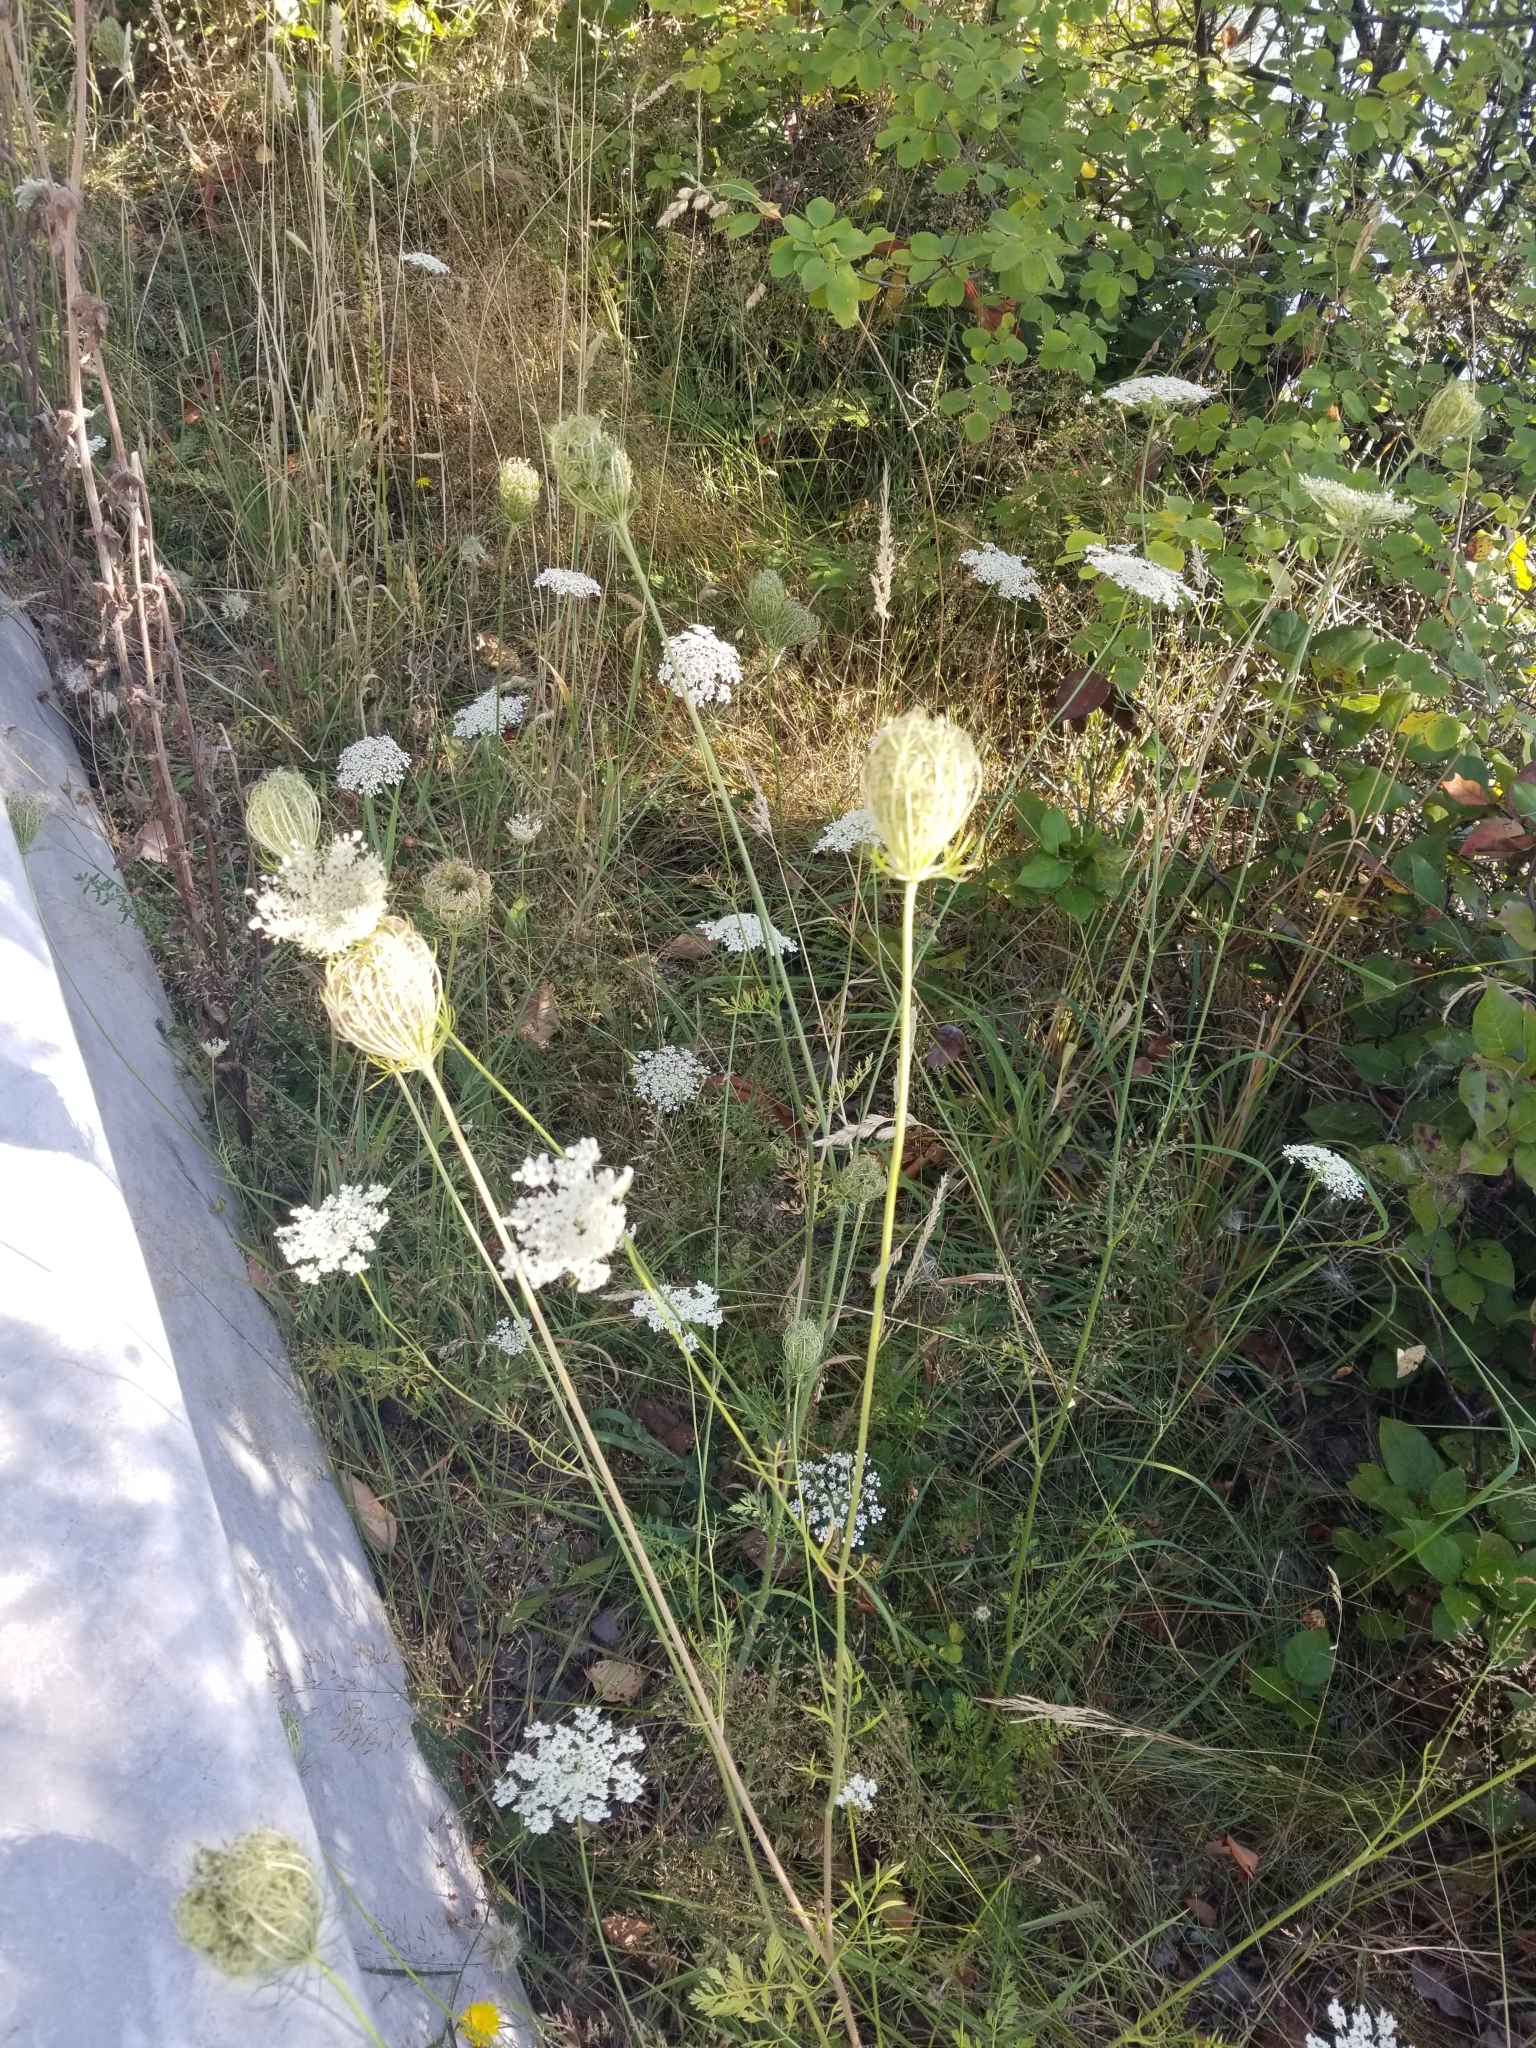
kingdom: Plantae
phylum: Tracheophyta
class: Magnoliopsida
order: Apiales
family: Apiaceae
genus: Daucus
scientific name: Daucus carota
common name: Wild carrot
